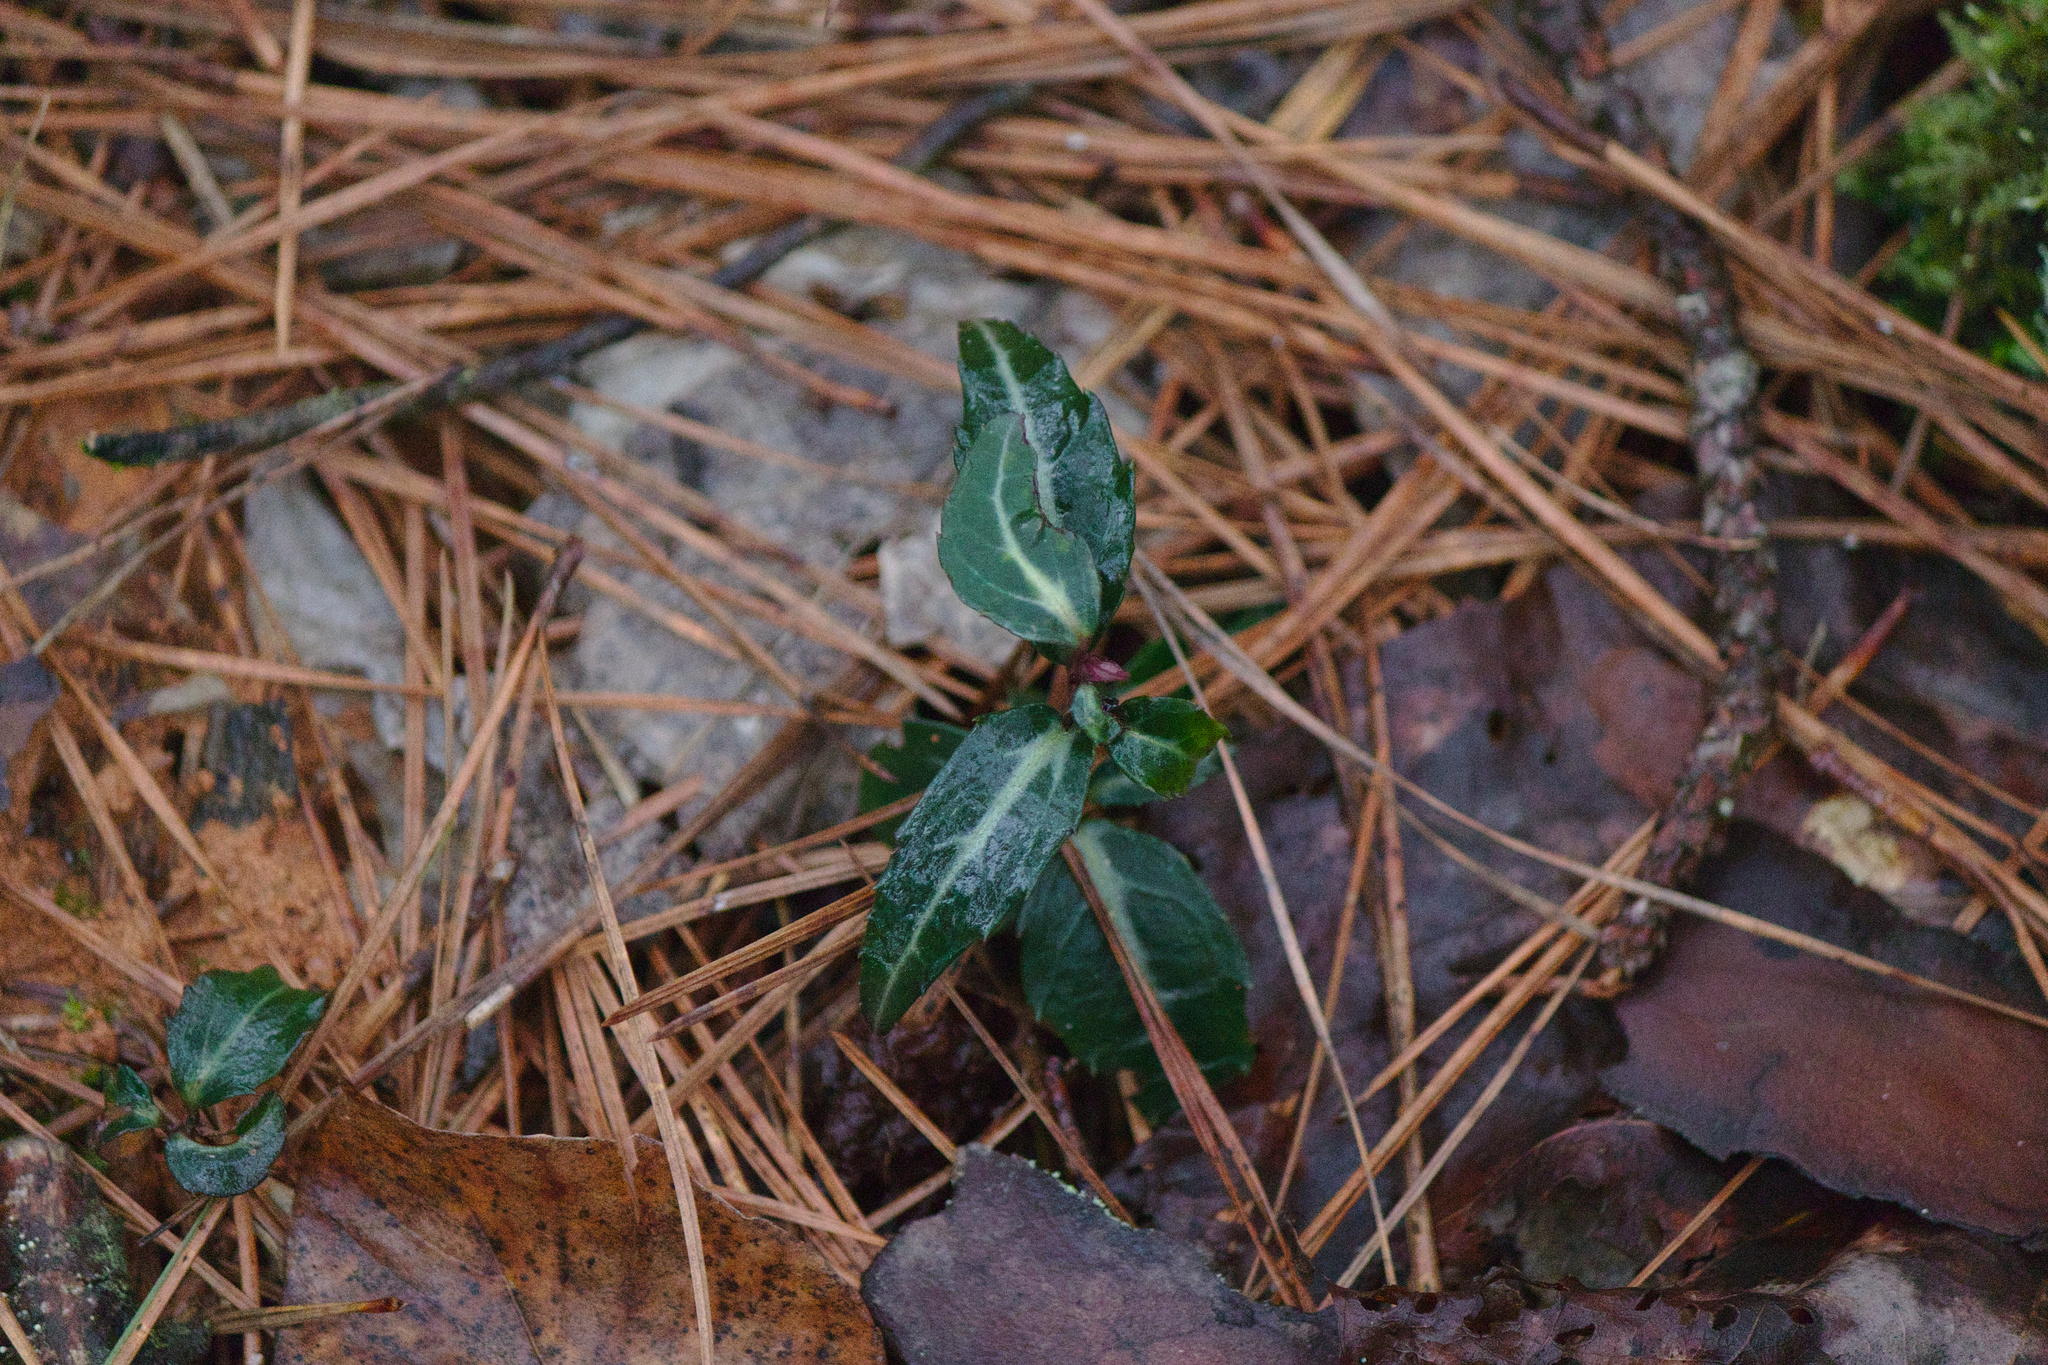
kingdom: Plantae
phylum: Tracheophyta
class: Magnoliopsida
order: Ericales
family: Ericaceae
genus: Chimaphila
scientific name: Chimaphila maculata
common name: Spotted pipsissewa
